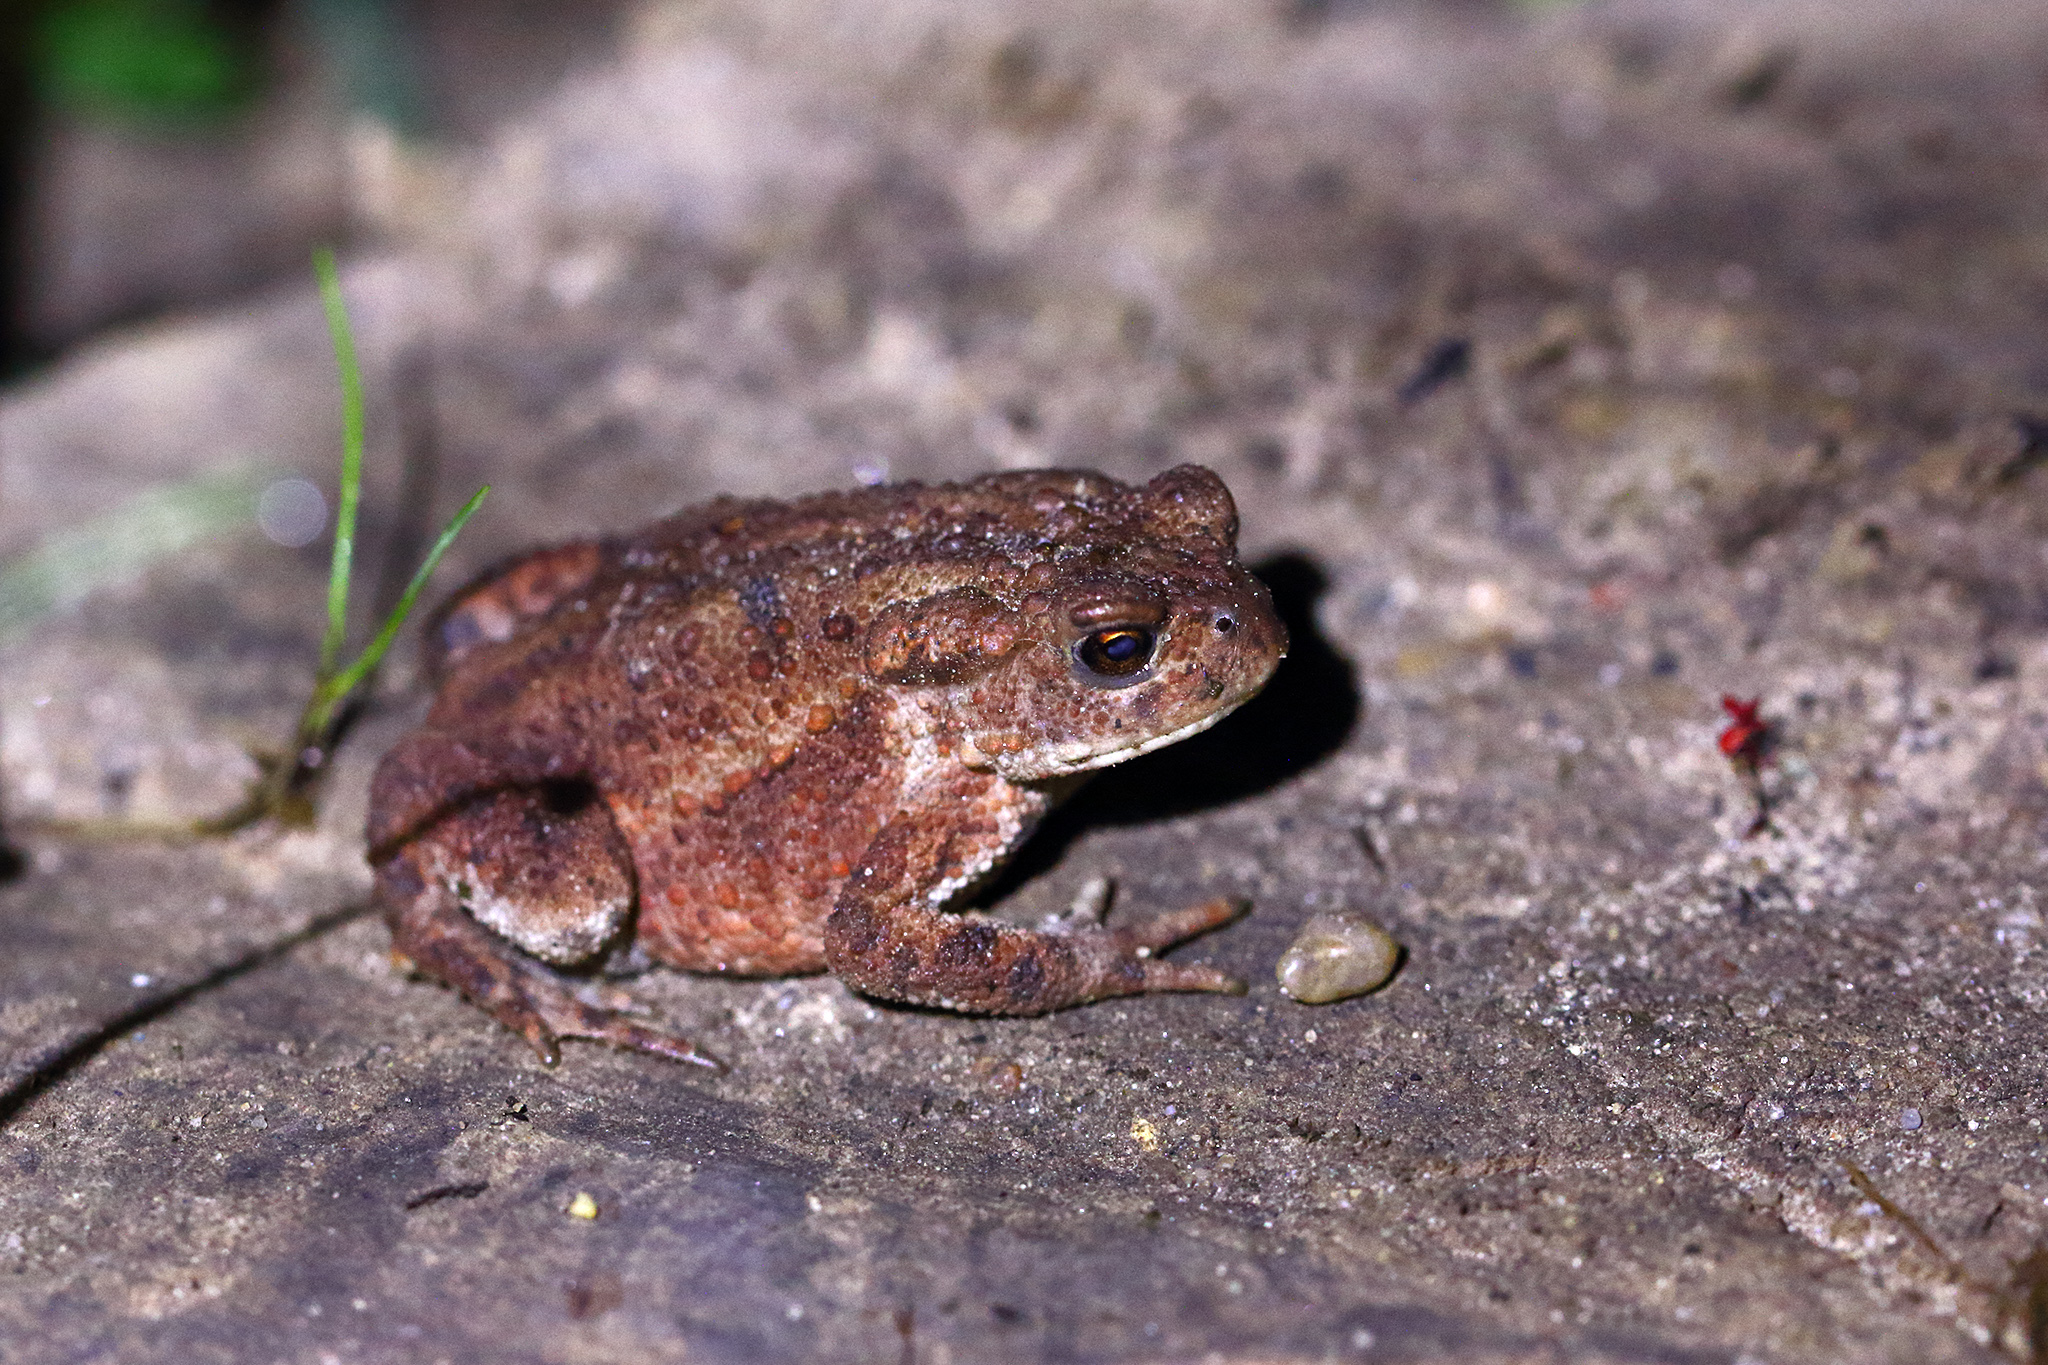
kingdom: Animalia
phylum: Chordata
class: Amphibia
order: Anura
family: Bufonidae
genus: Bufo
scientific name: Bufo bufo
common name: Common toad
